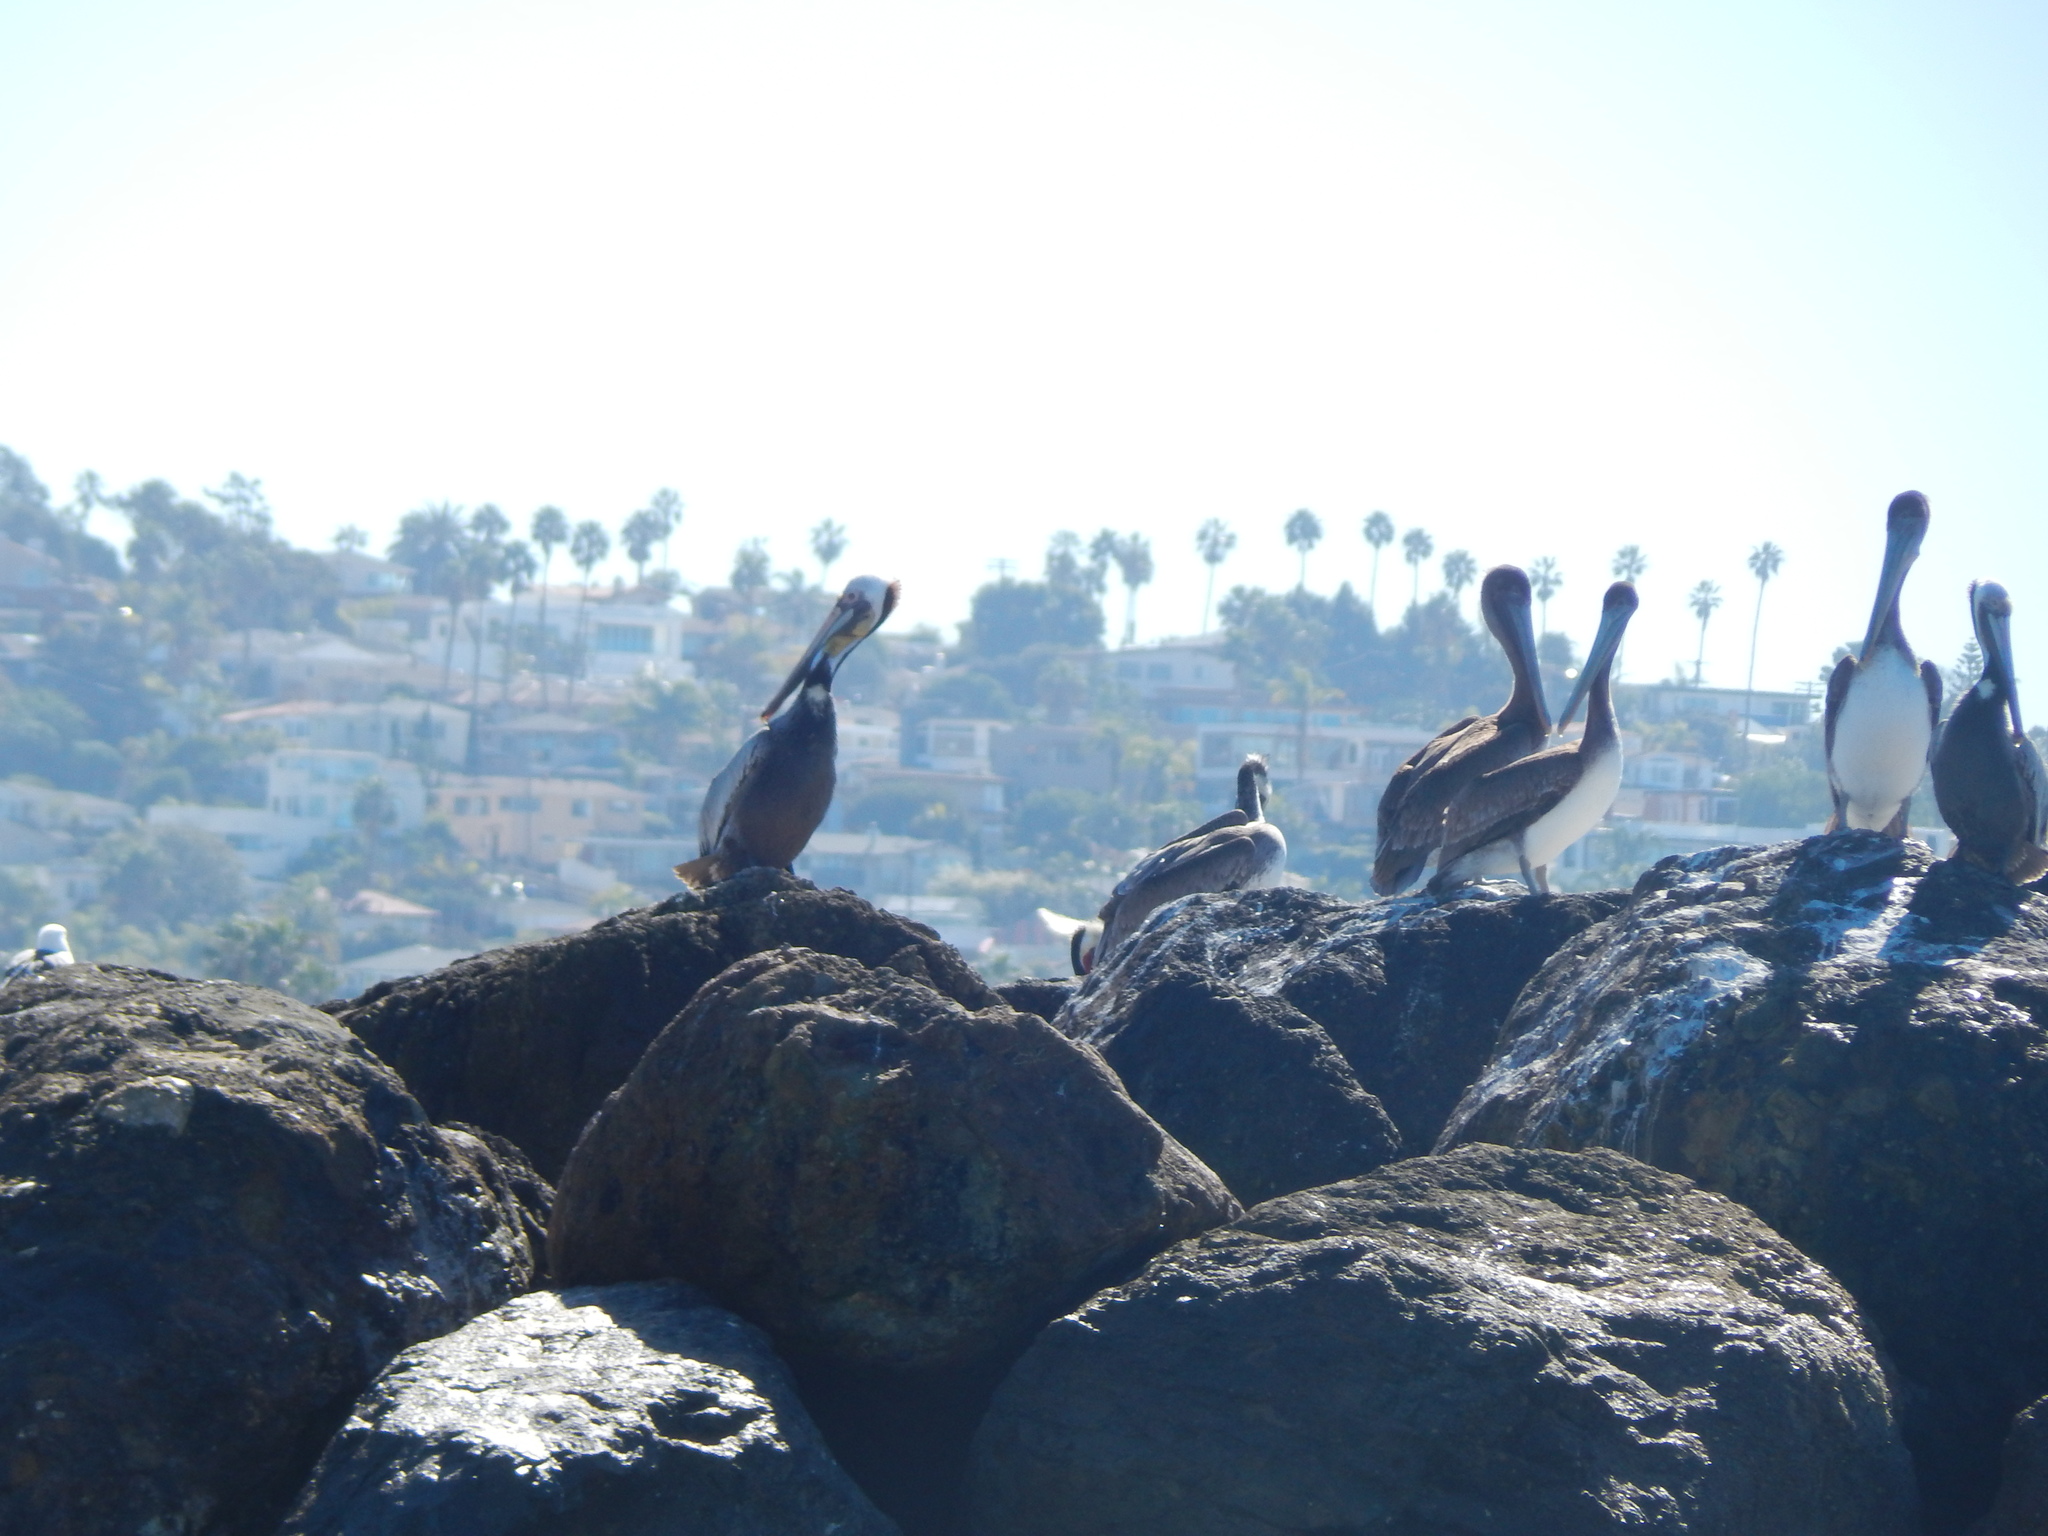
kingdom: Animalia
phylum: Chordata
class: Aves
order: Pelecaniformes
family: Pelecanidae
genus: Pelecanus
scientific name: Pelecanus occidentalis
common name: Brown pelican
